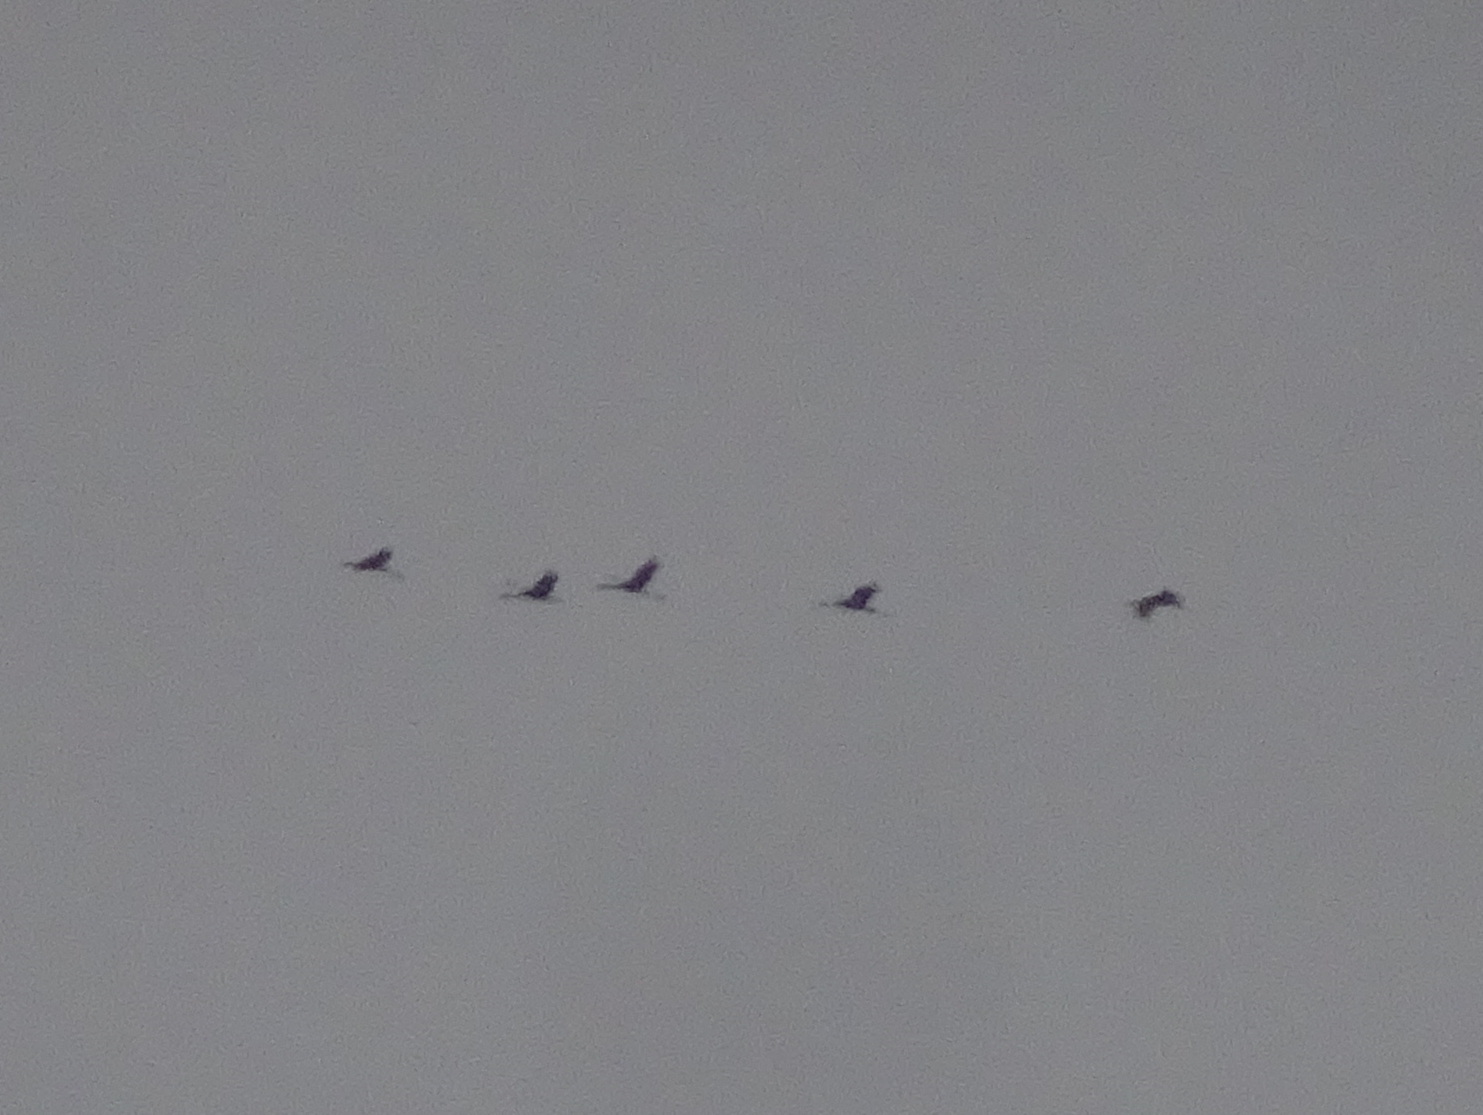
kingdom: Animalia
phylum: Chordata
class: Aves
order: Gruiformes
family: Gruidae
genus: Grus
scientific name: Grus canadensis
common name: Sandhill crane
